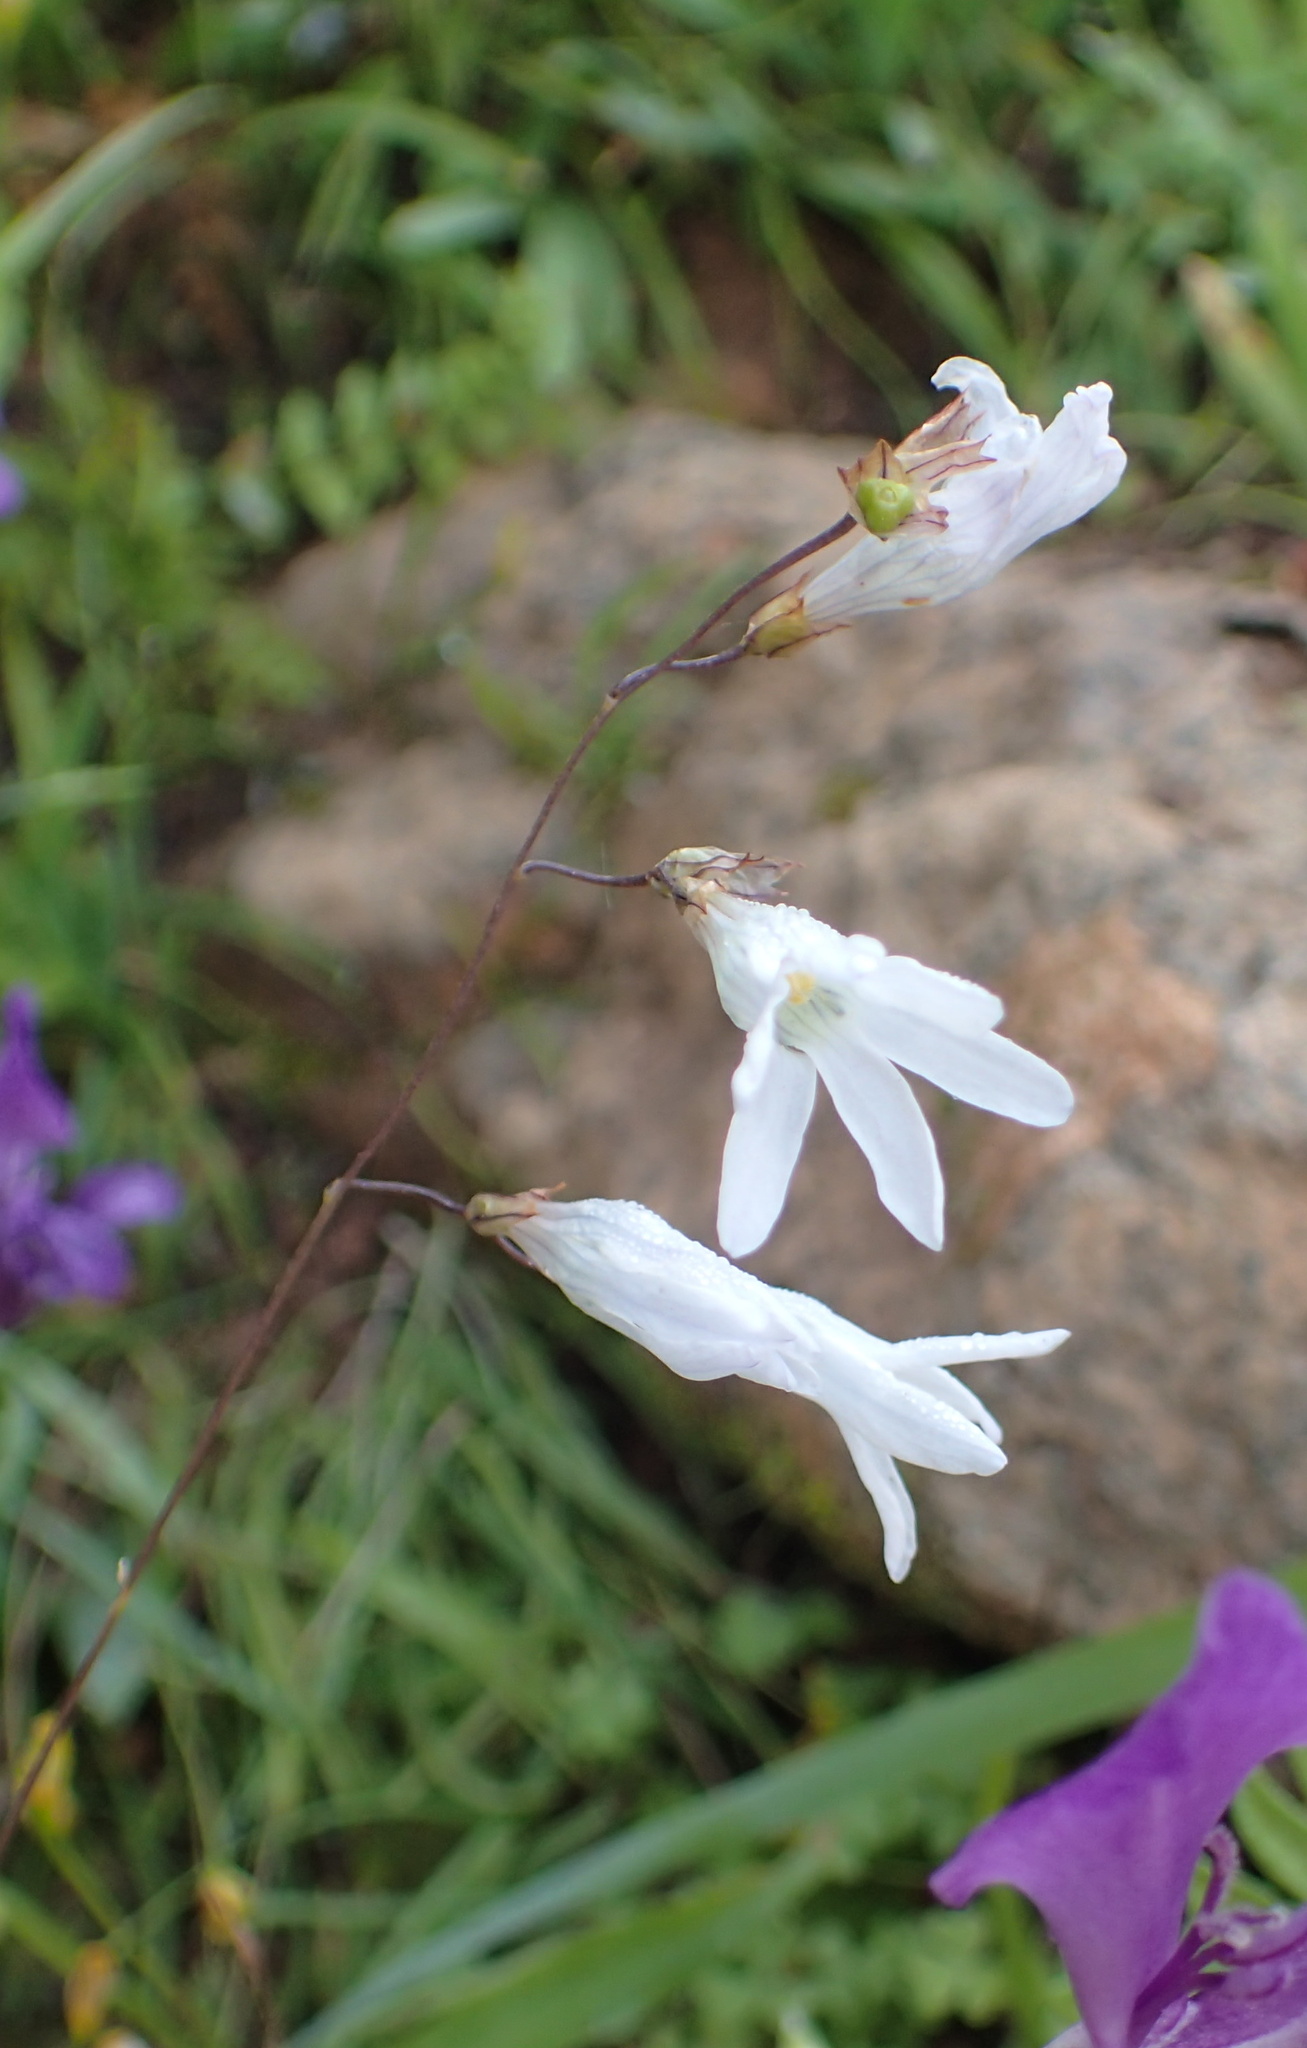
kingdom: Plantae
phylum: Tracheophyta
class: Liliopsida
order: Asparagales
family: Iridaceae
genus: Ixia
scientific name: Ixia namaquana
